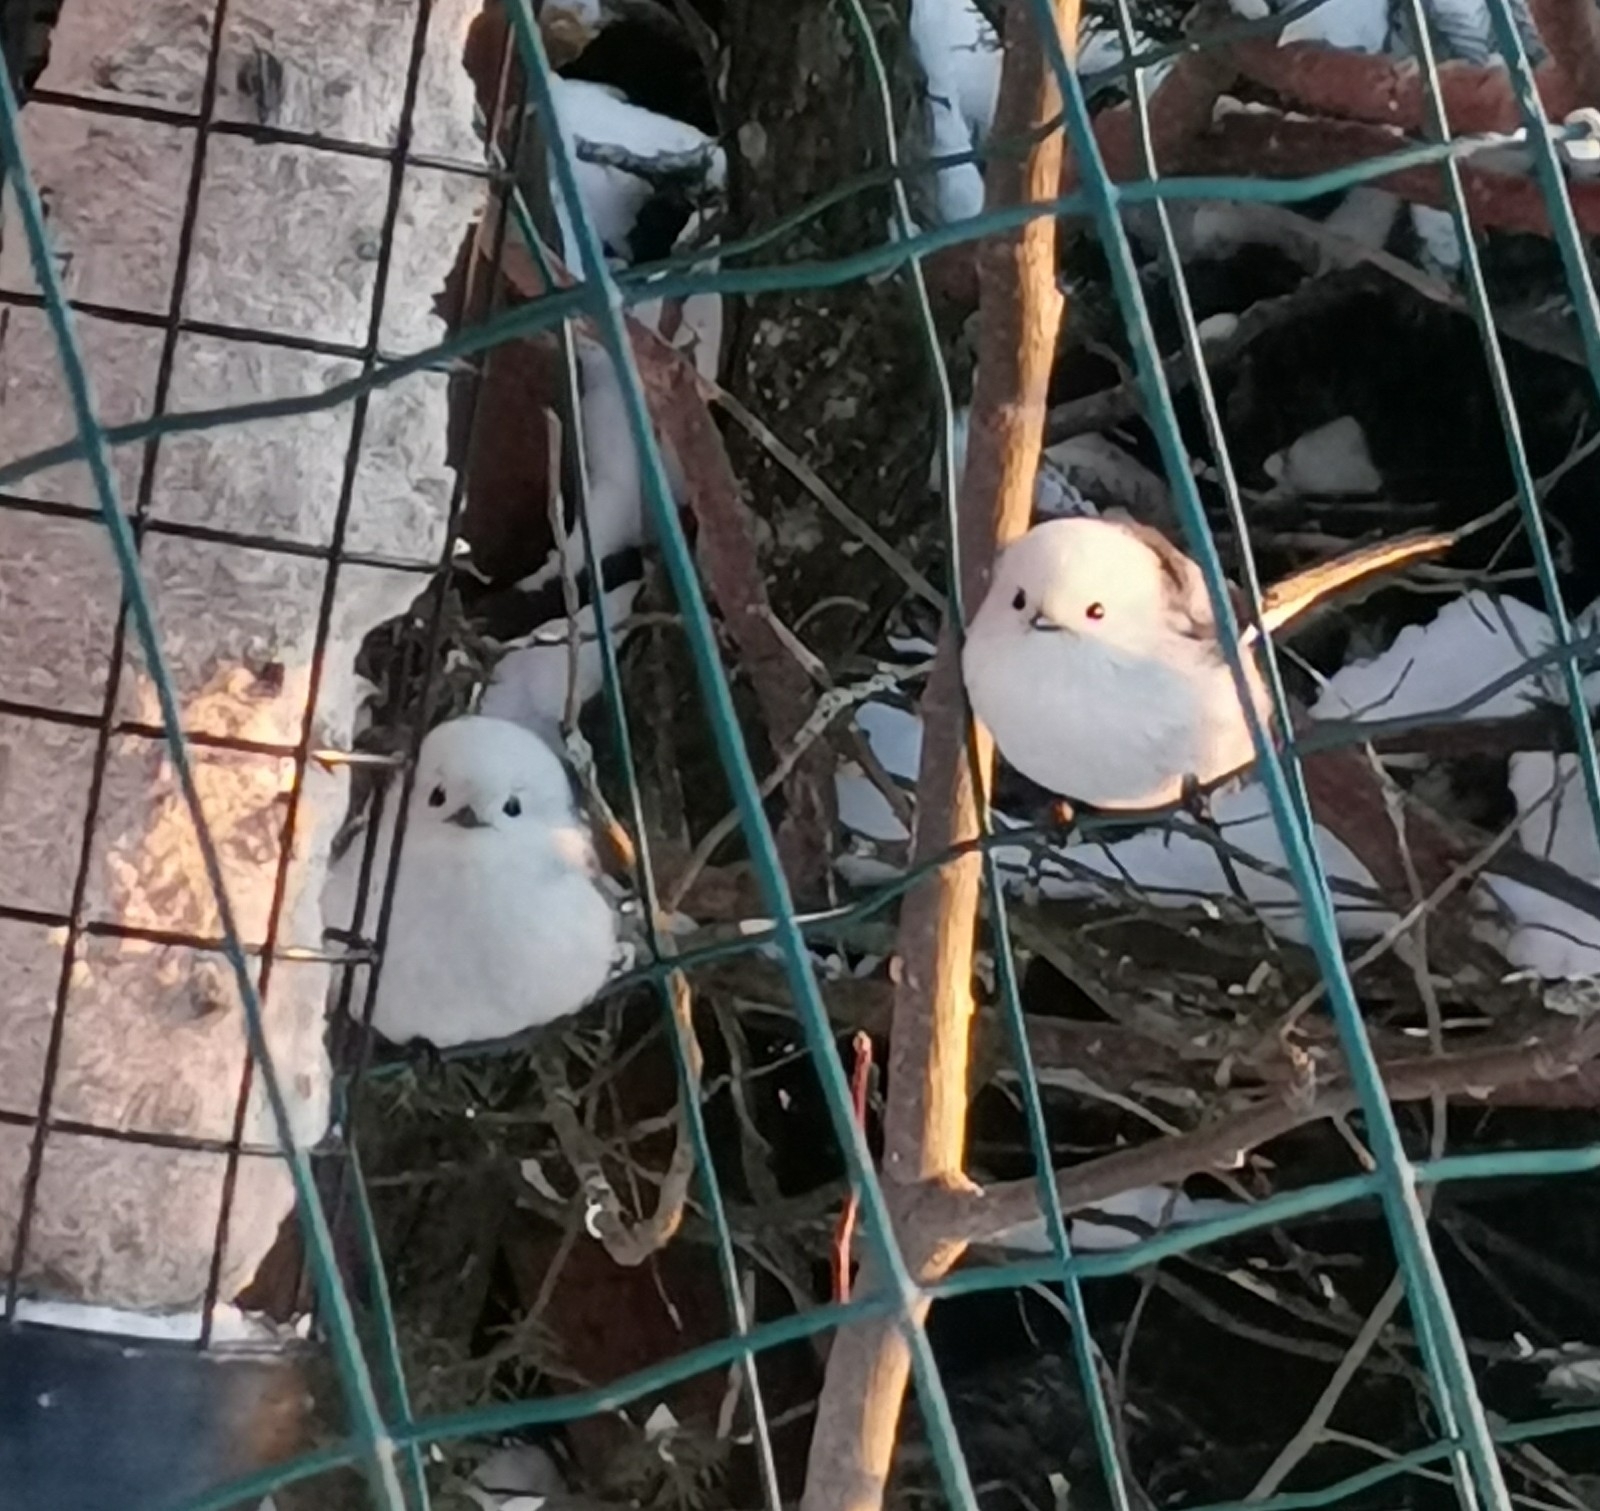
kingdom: Animalia
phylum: Chordata
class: Aves
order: Passeriformes
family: Aegithalidae
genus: Aegithalos
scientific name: Aegithalos caudatus
